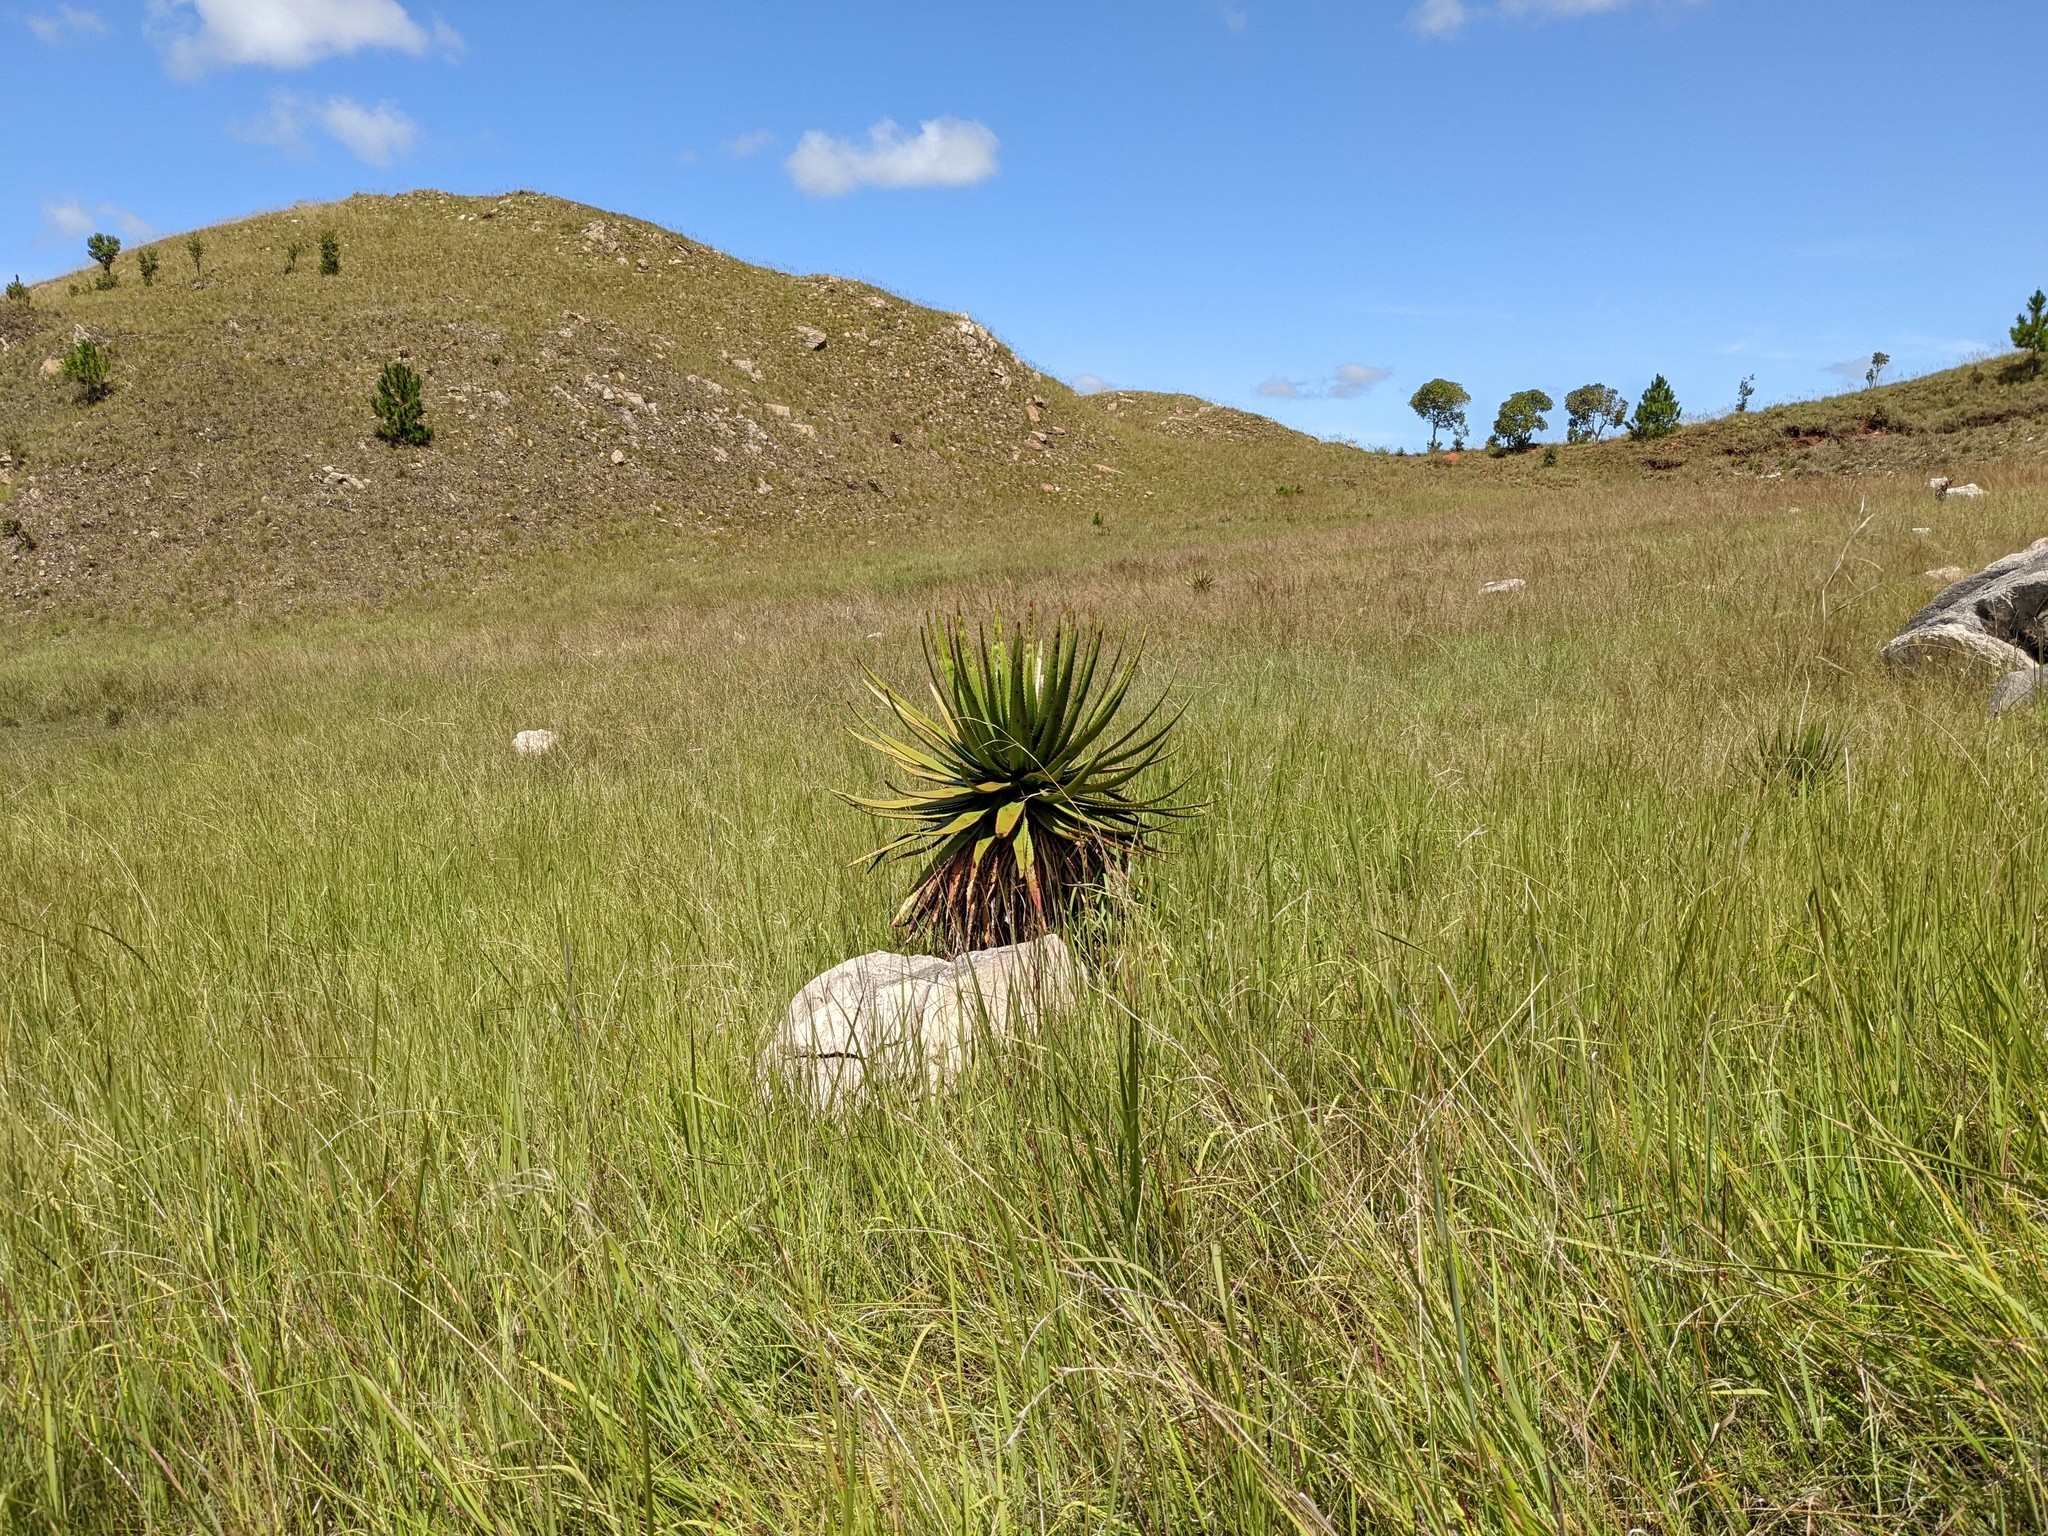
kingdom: Plantae
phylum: Tracheophyta
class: Liliopsida
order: Asparagales
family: Asphodelaceae
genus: Aloe
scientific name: Aloe cipolinicola
